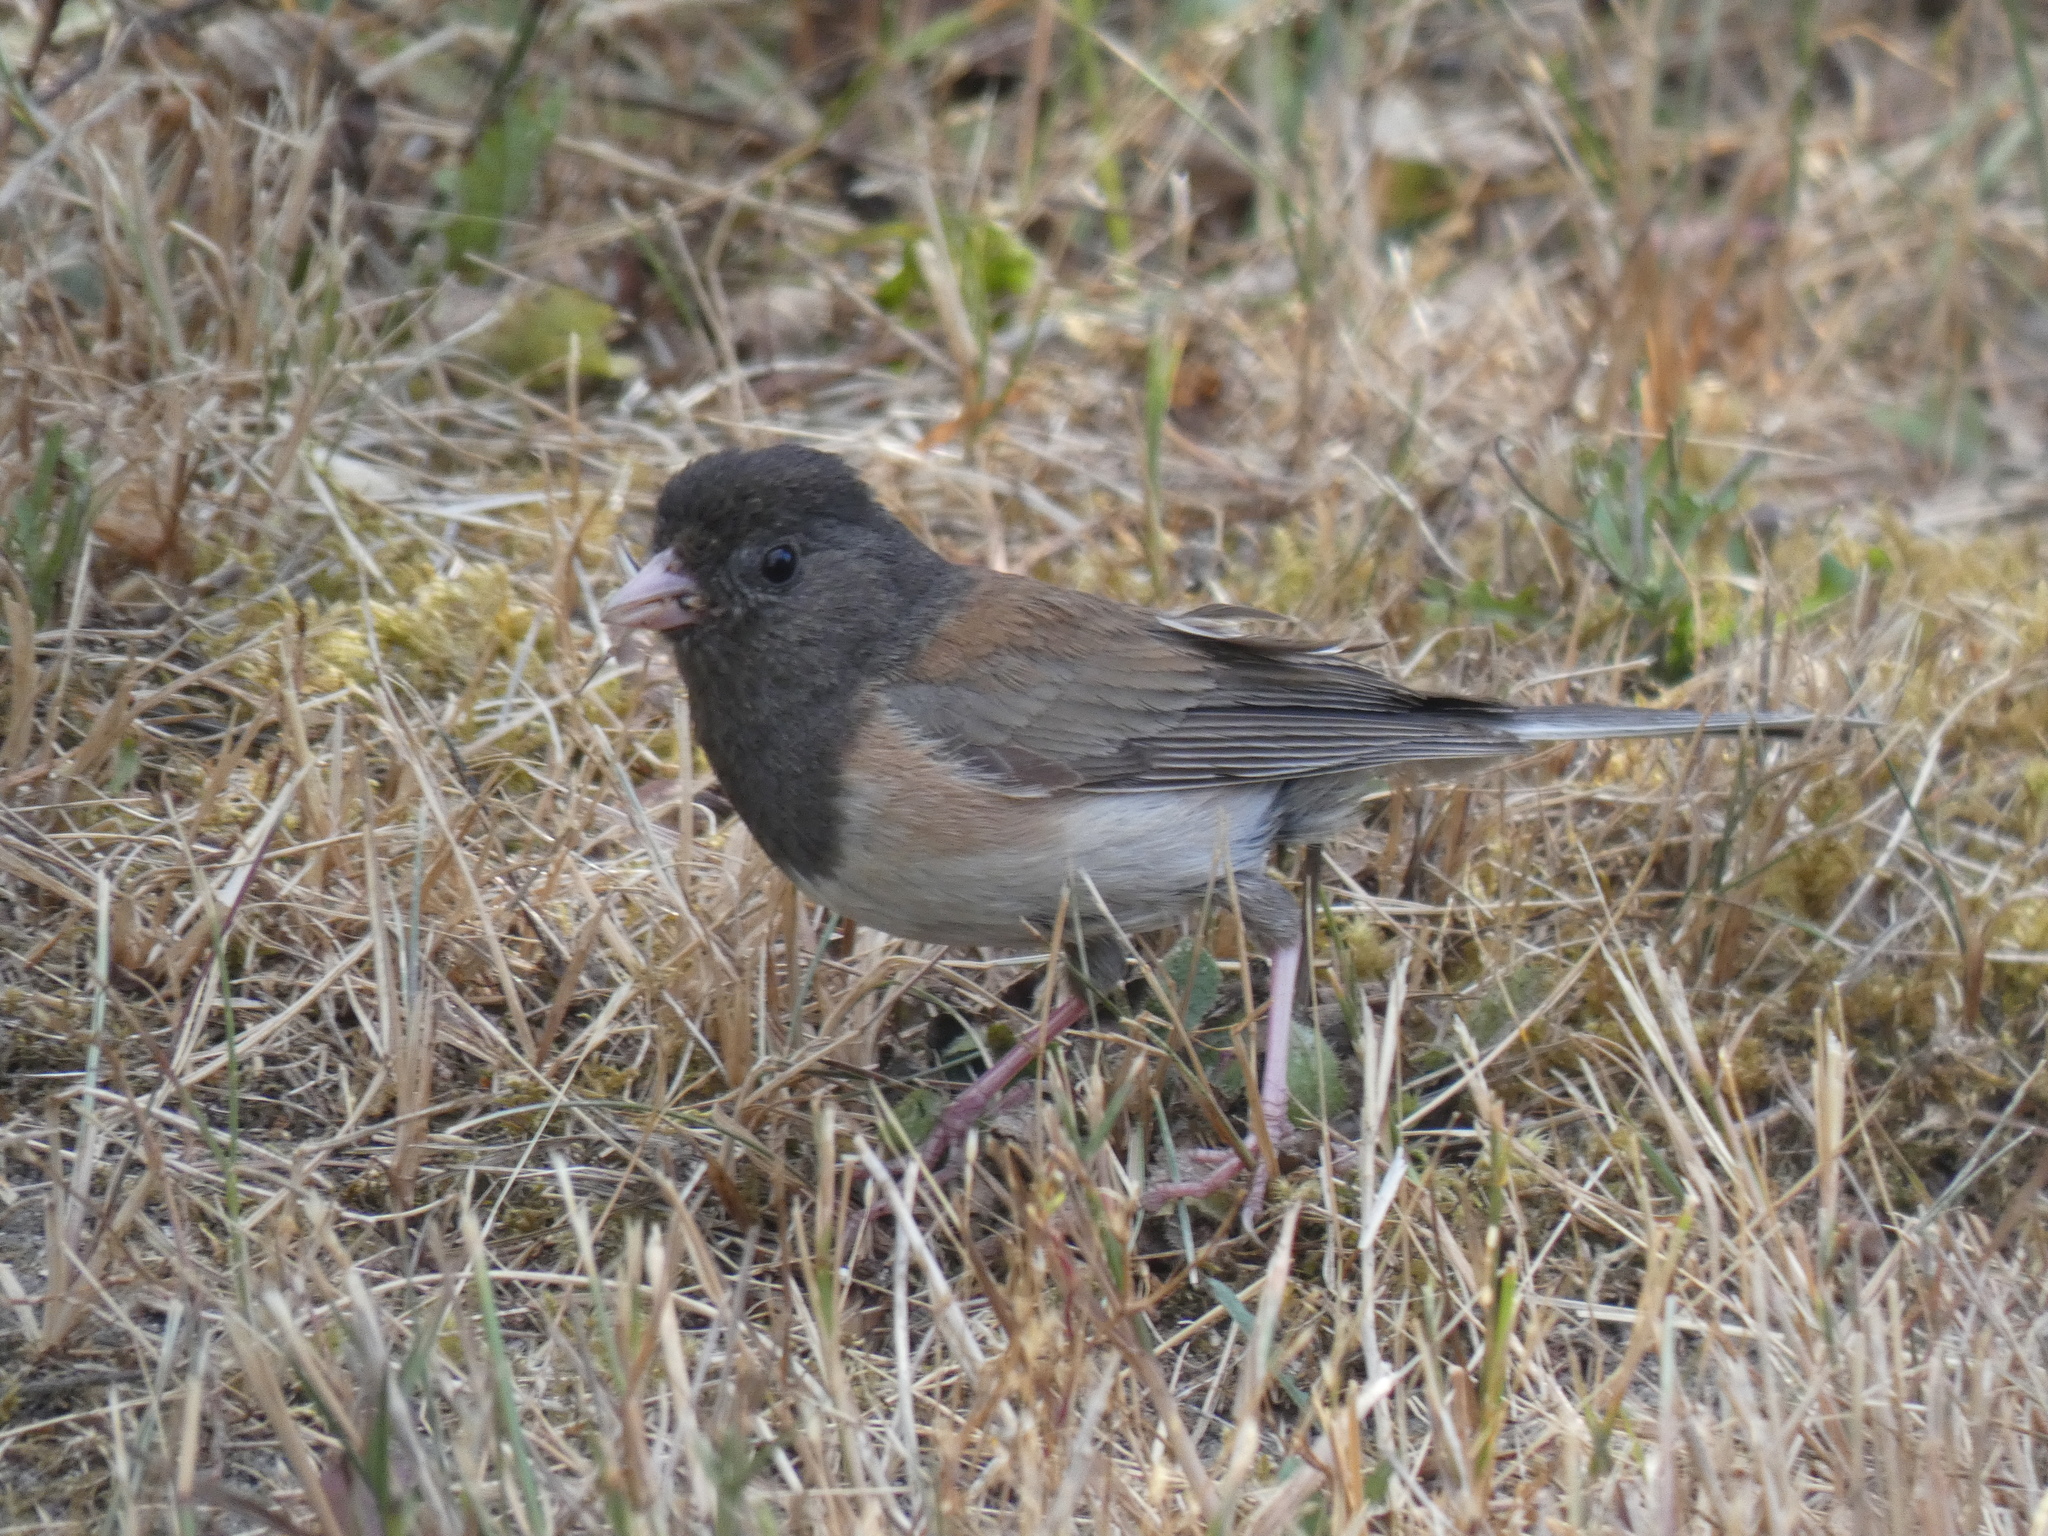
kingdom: Animalia
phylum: Chordata
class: Aves
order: Passeriformes
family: Passerellidae
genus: Junco
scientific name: Junco hyemalis
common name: Dark-eyed junco
